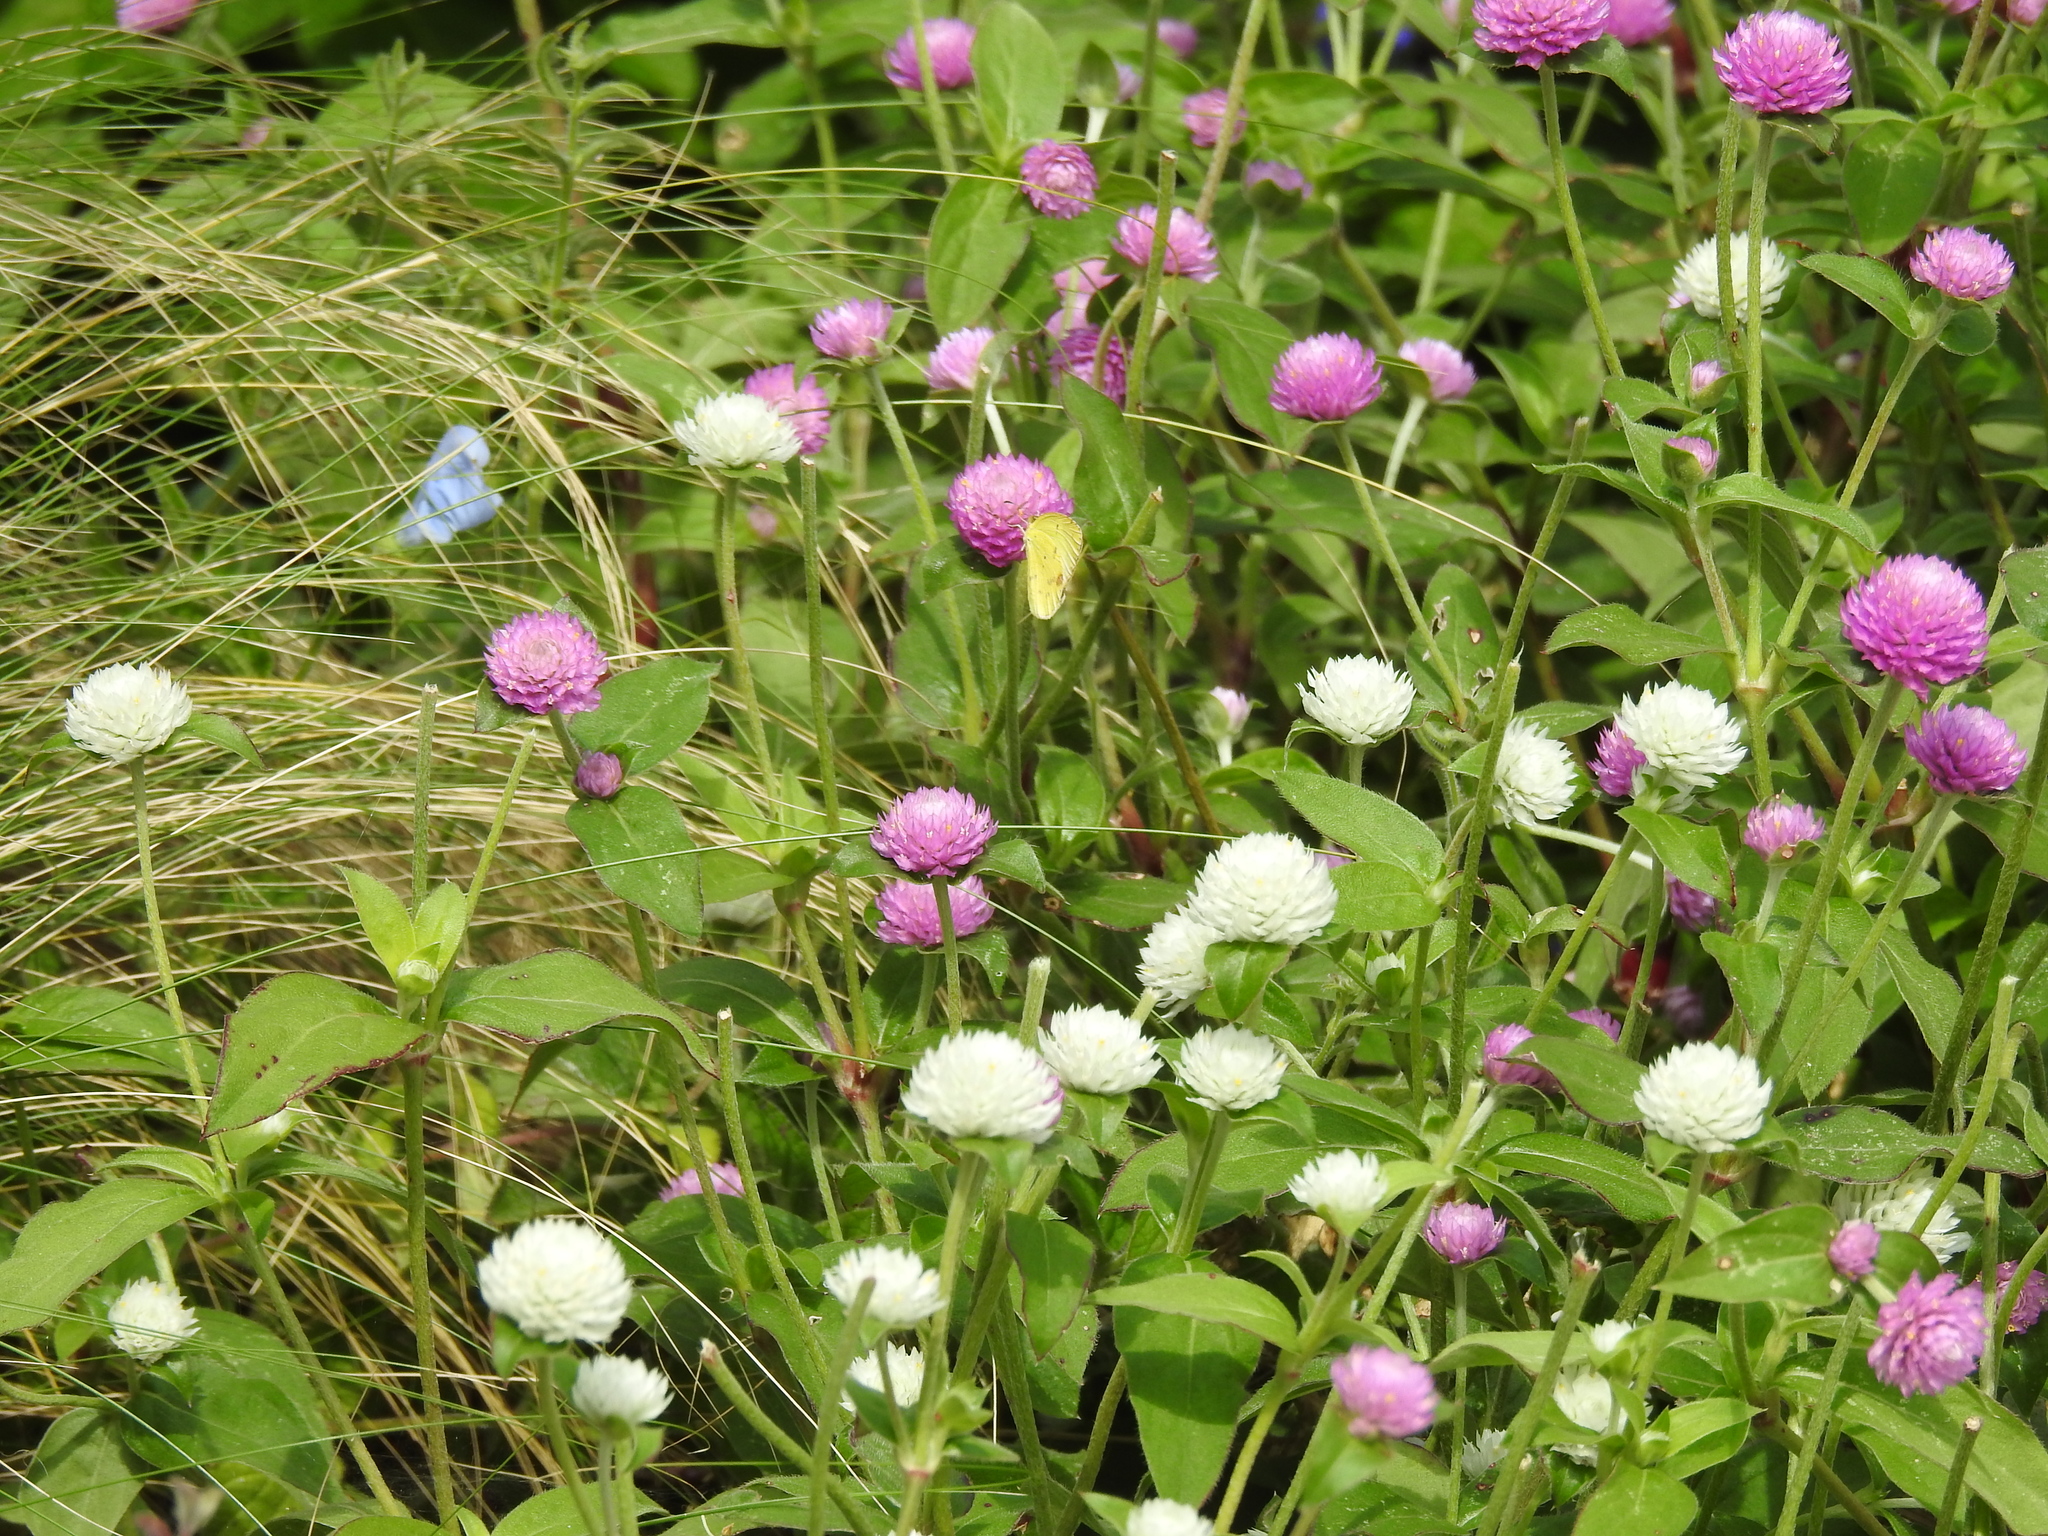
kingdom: Animalia
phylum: Arthropoda
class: Insecta
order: Lepidoptera
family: Pieridae
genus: Pyrisitia
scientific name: Pyrisitia lisa
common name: Little yellow
